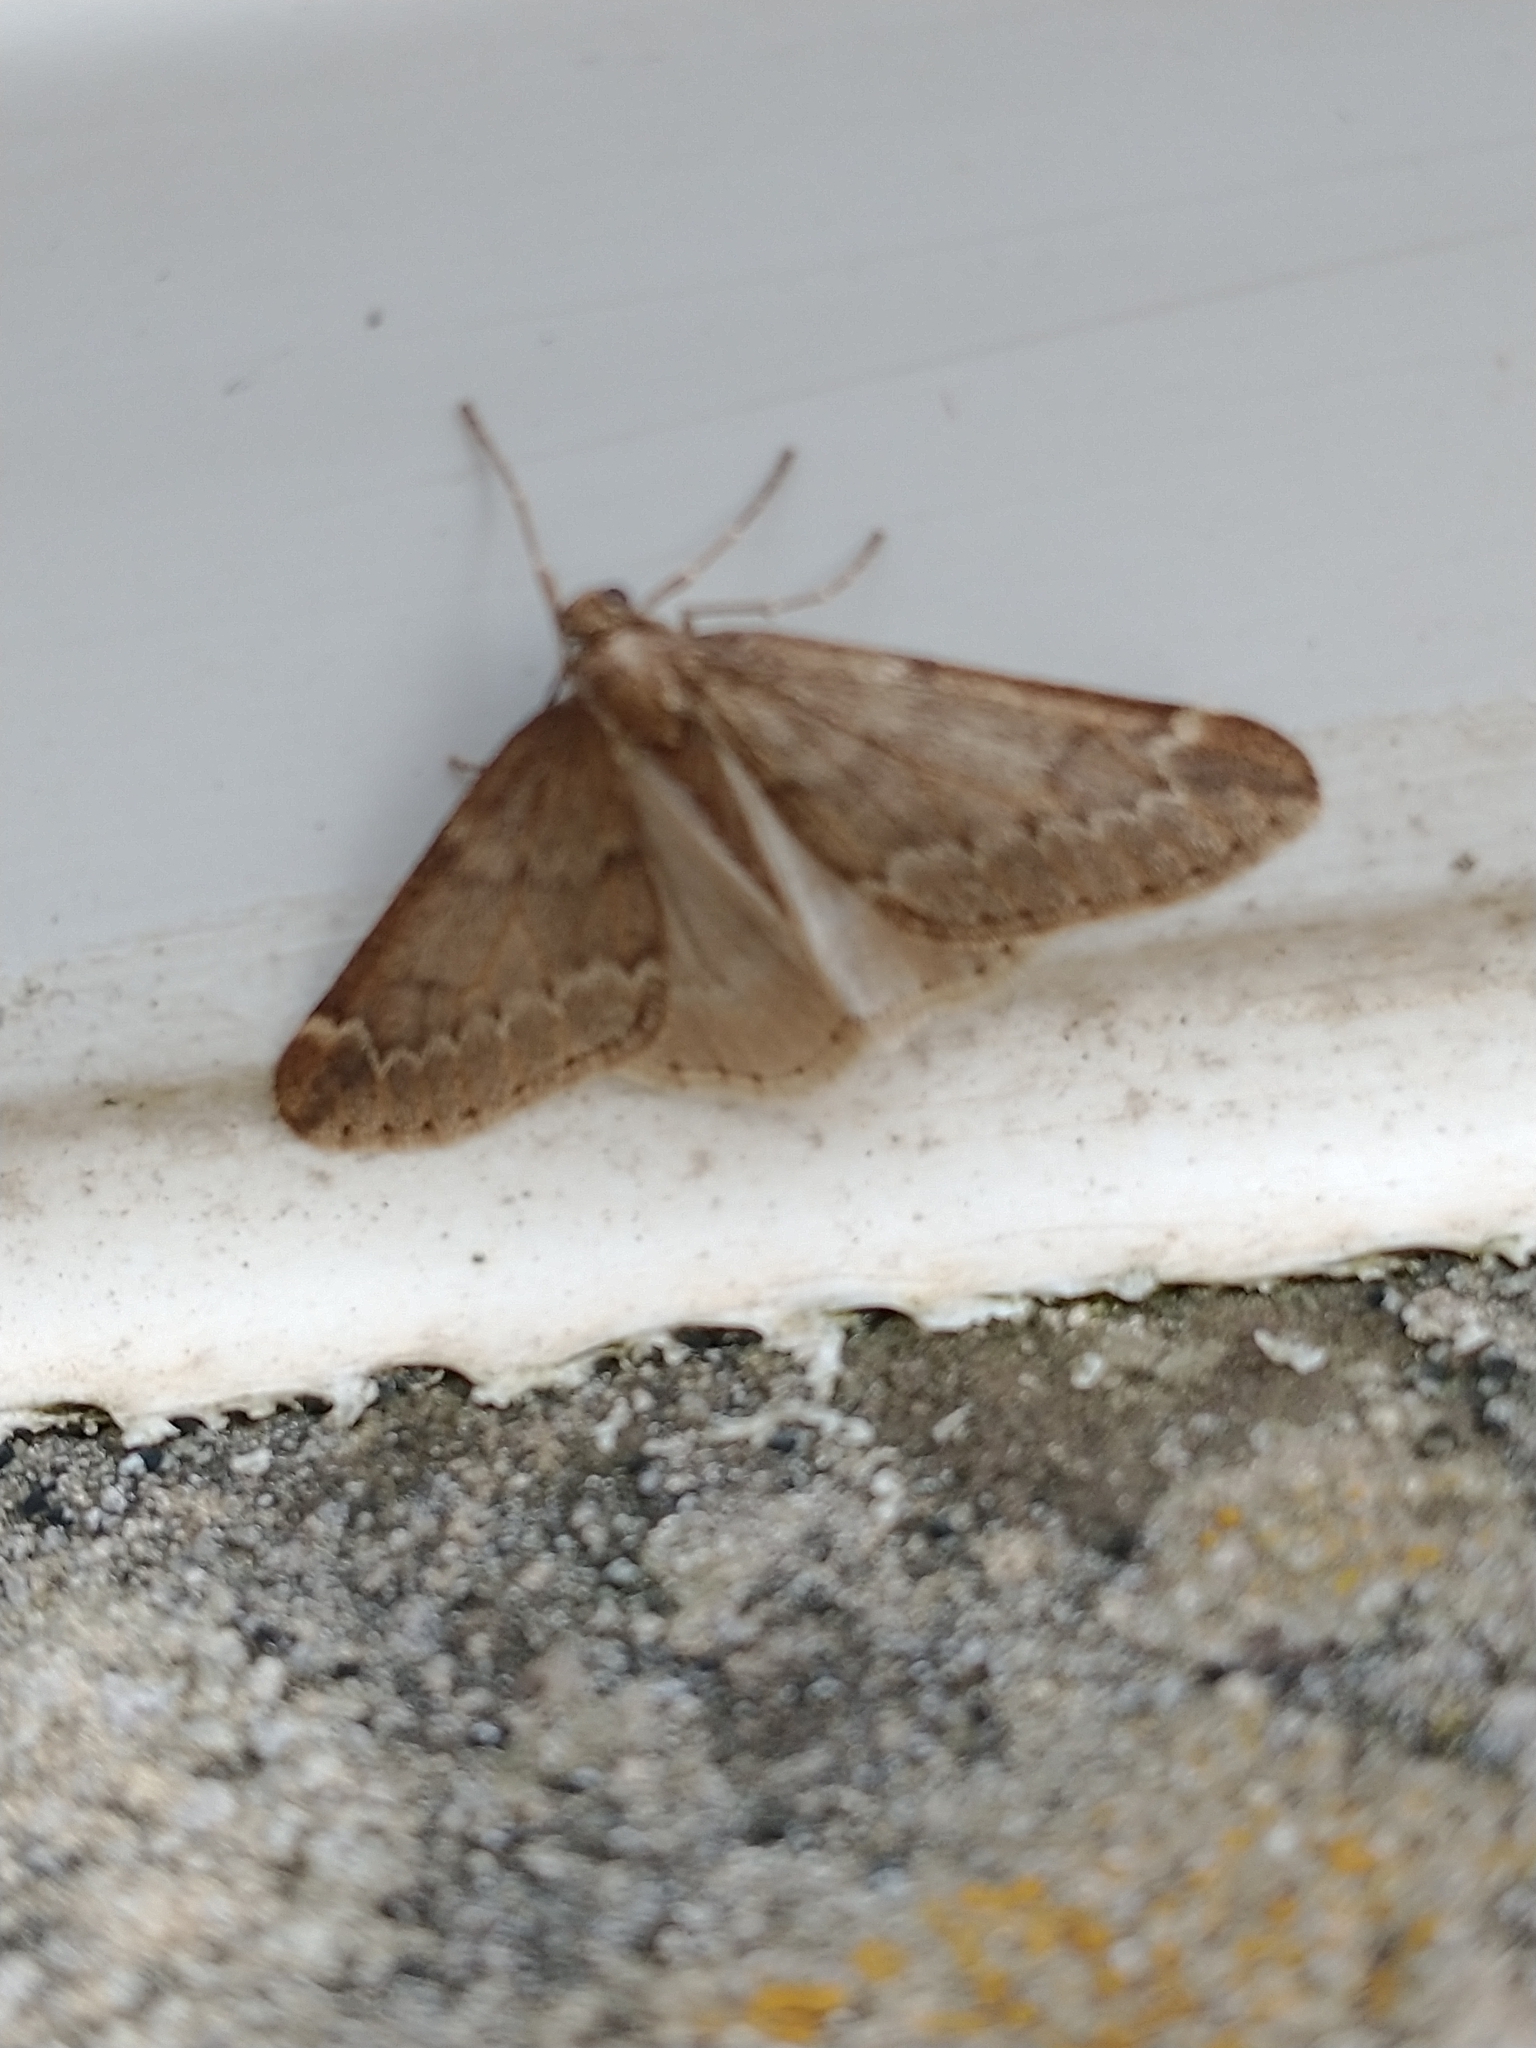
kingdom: Animalia
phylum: Arthropoda
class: Insecta
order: Lepidoptera
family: Geometridae
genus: Alsophila
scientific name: Alsophila aescularia
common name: March moth
